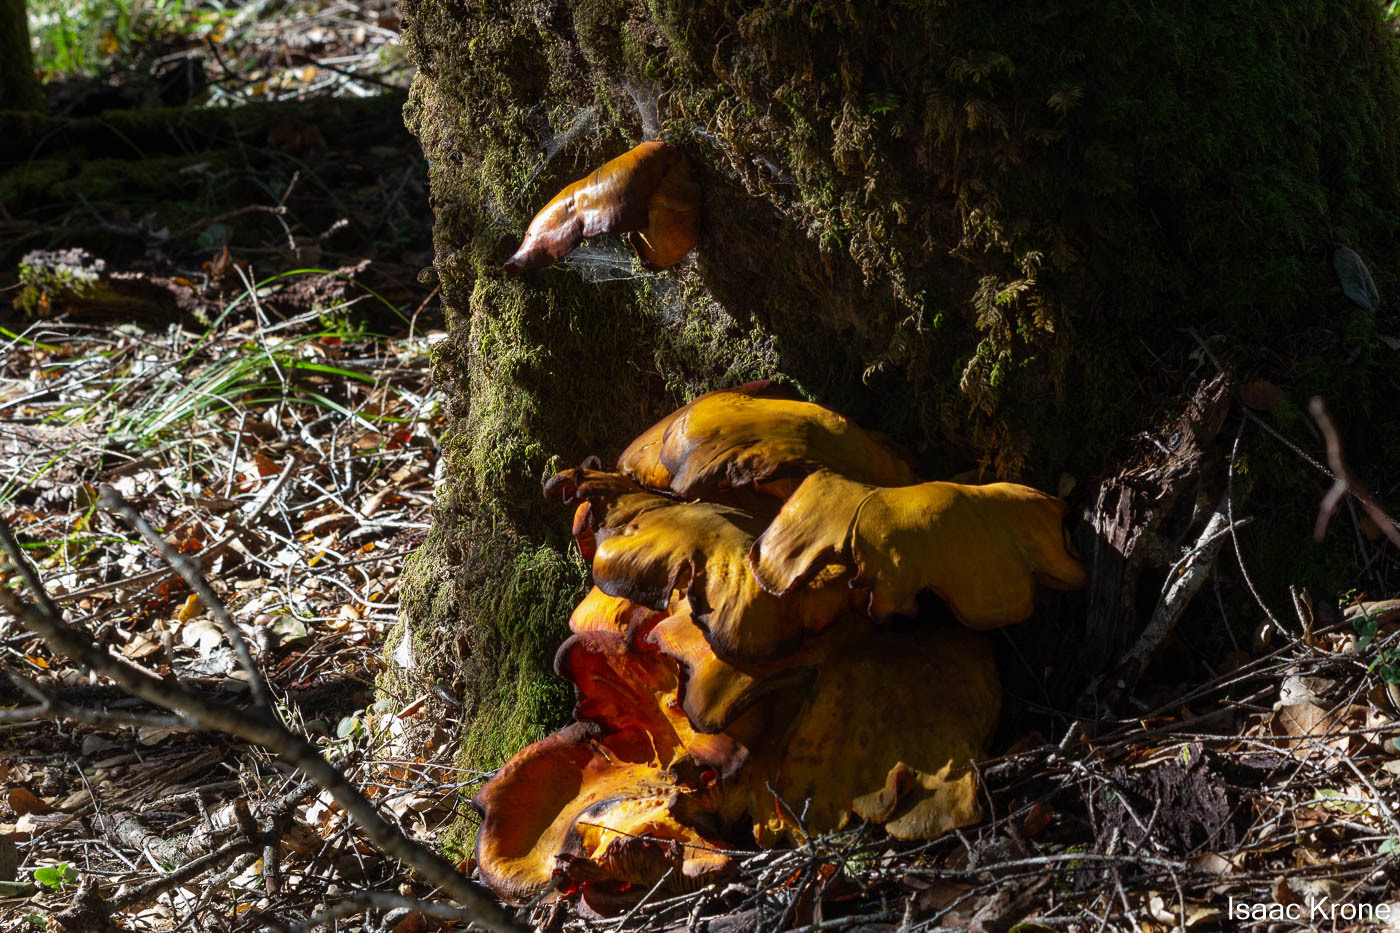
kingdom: Fungi
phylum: Basidiomycota
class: Agaricomycetes
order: Agaricales
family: Omphalotaceae
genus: Omphalotus
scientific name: Omphalotus olivascens
